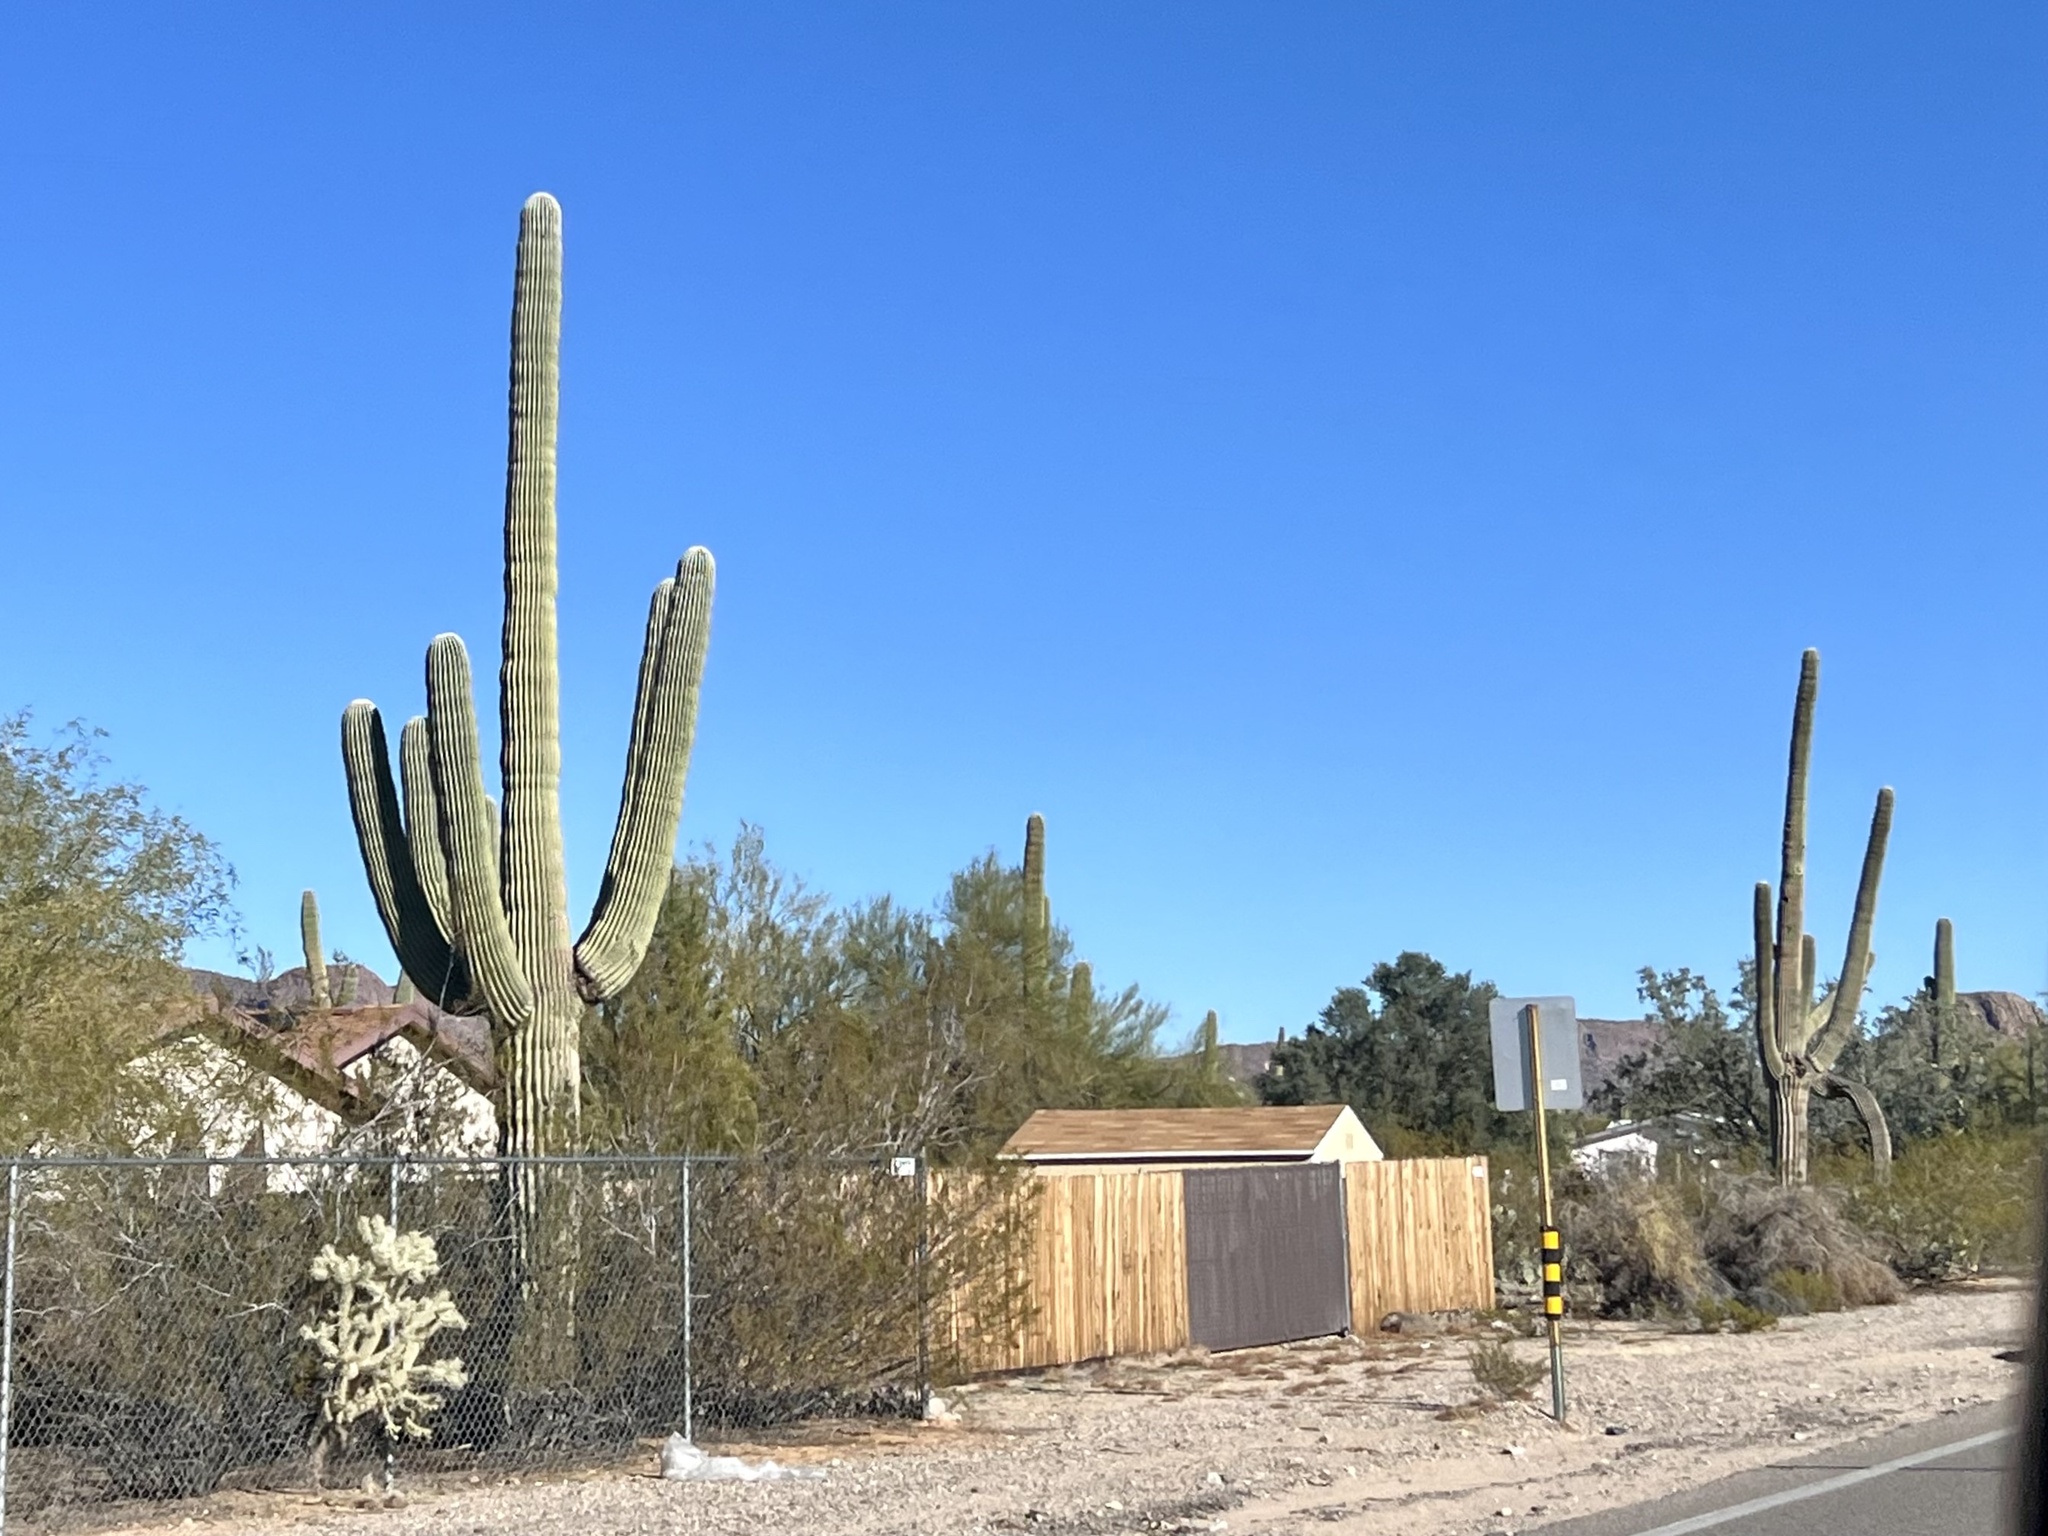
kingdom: Plantae
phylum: Tracheophyta
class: Magnoliopsida
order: Caryophyllales
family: Cactaceae
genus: Carnegiea
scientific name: Carnegiea gigantea
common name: Saguaro
